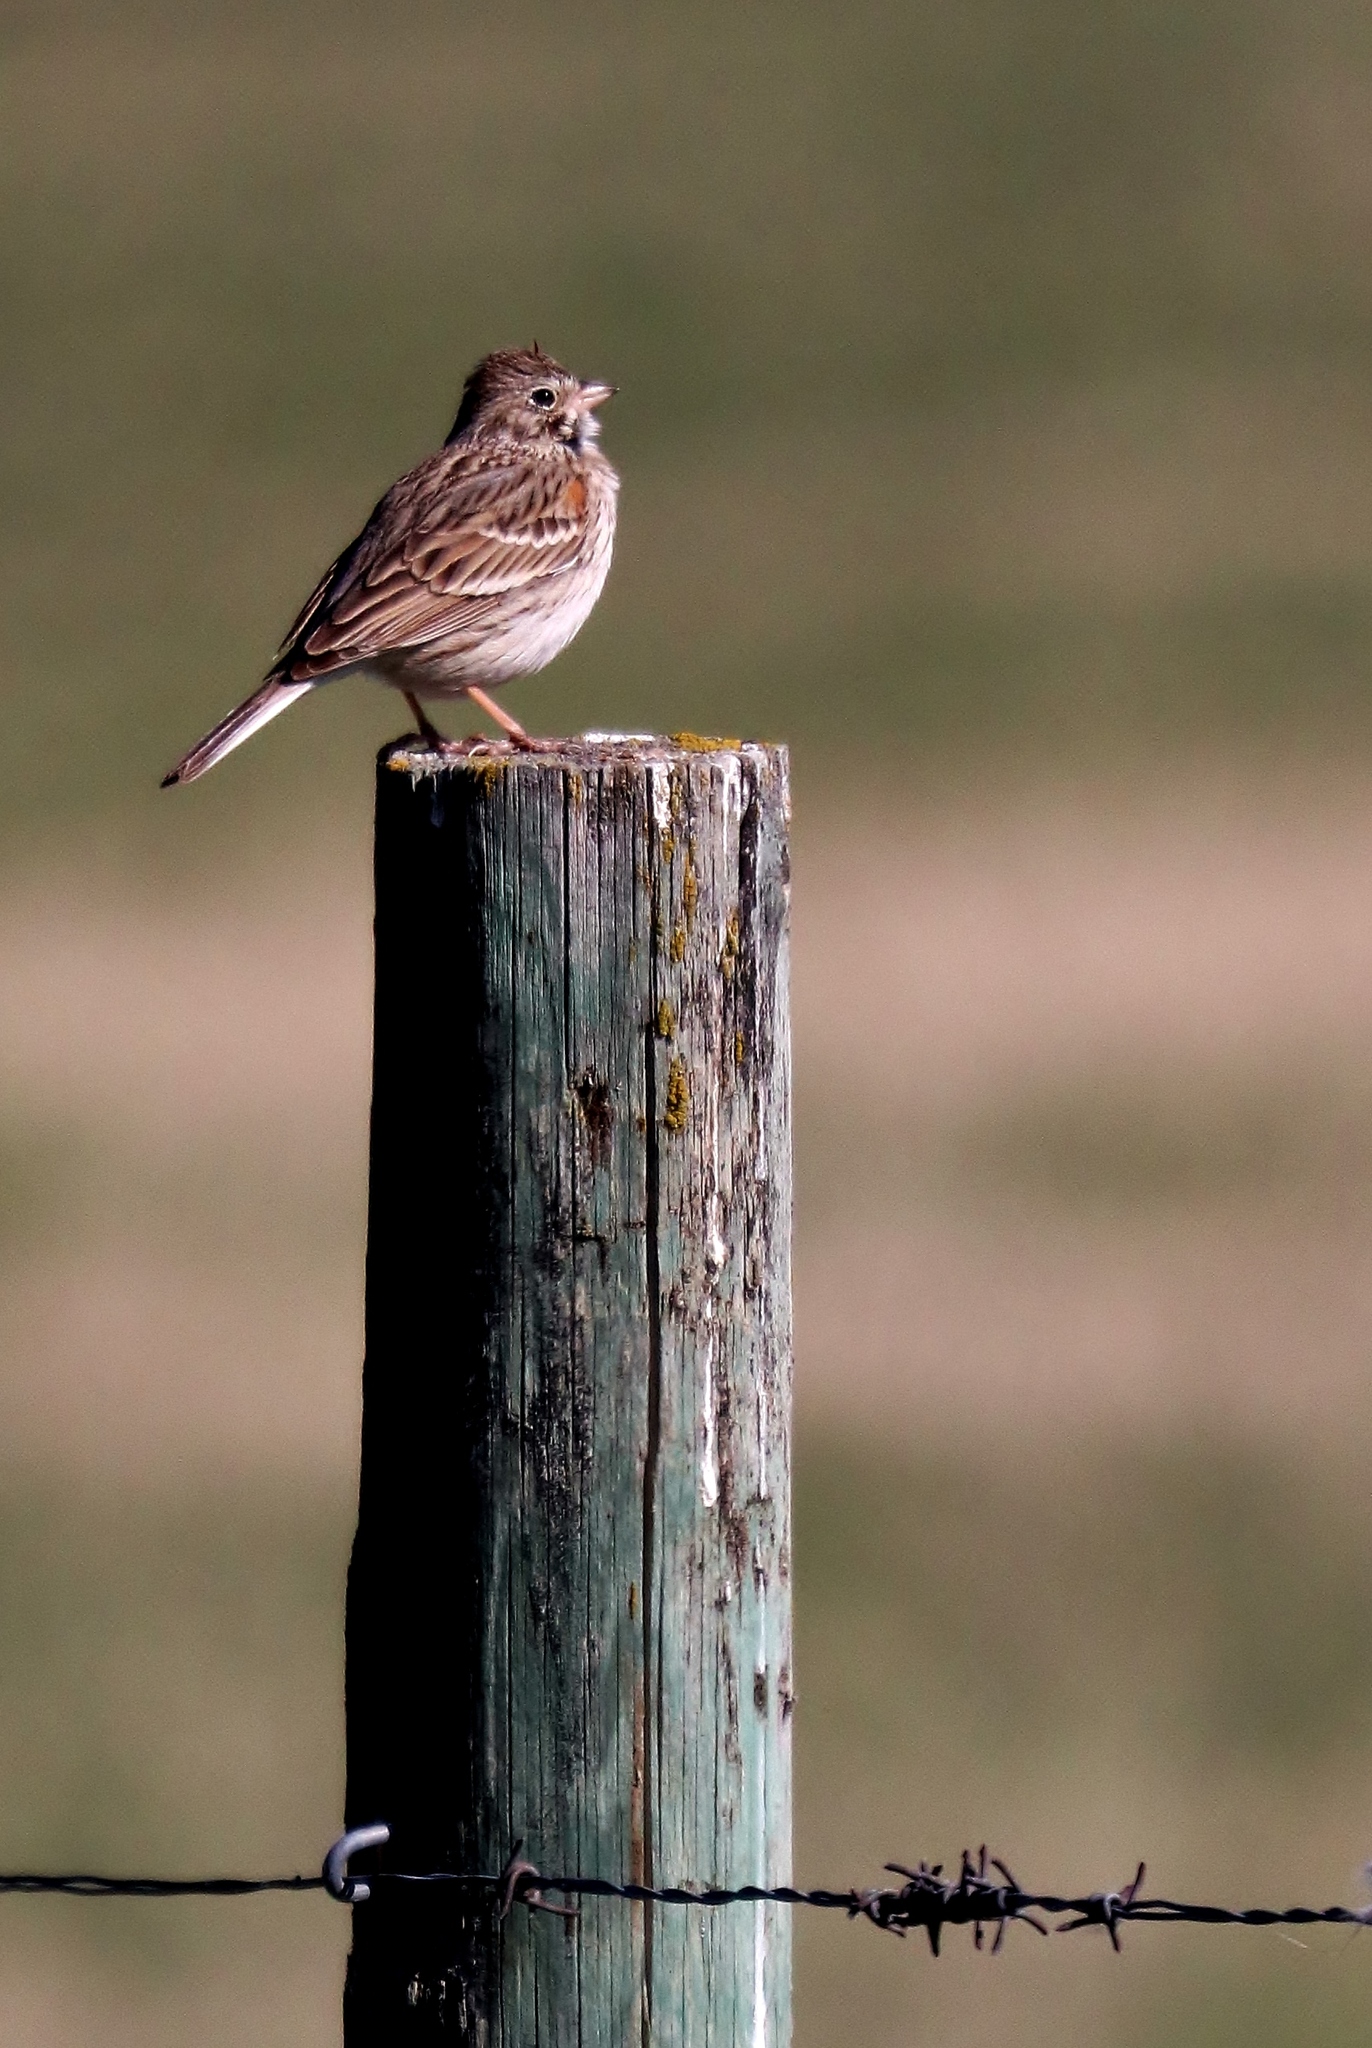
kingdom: Animalia
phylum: Chordata
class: Aves
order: Passeriformes
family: Passerellidae
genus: Pooecetes
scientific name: Pooecetes gramineus
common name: Vesper sparrow
